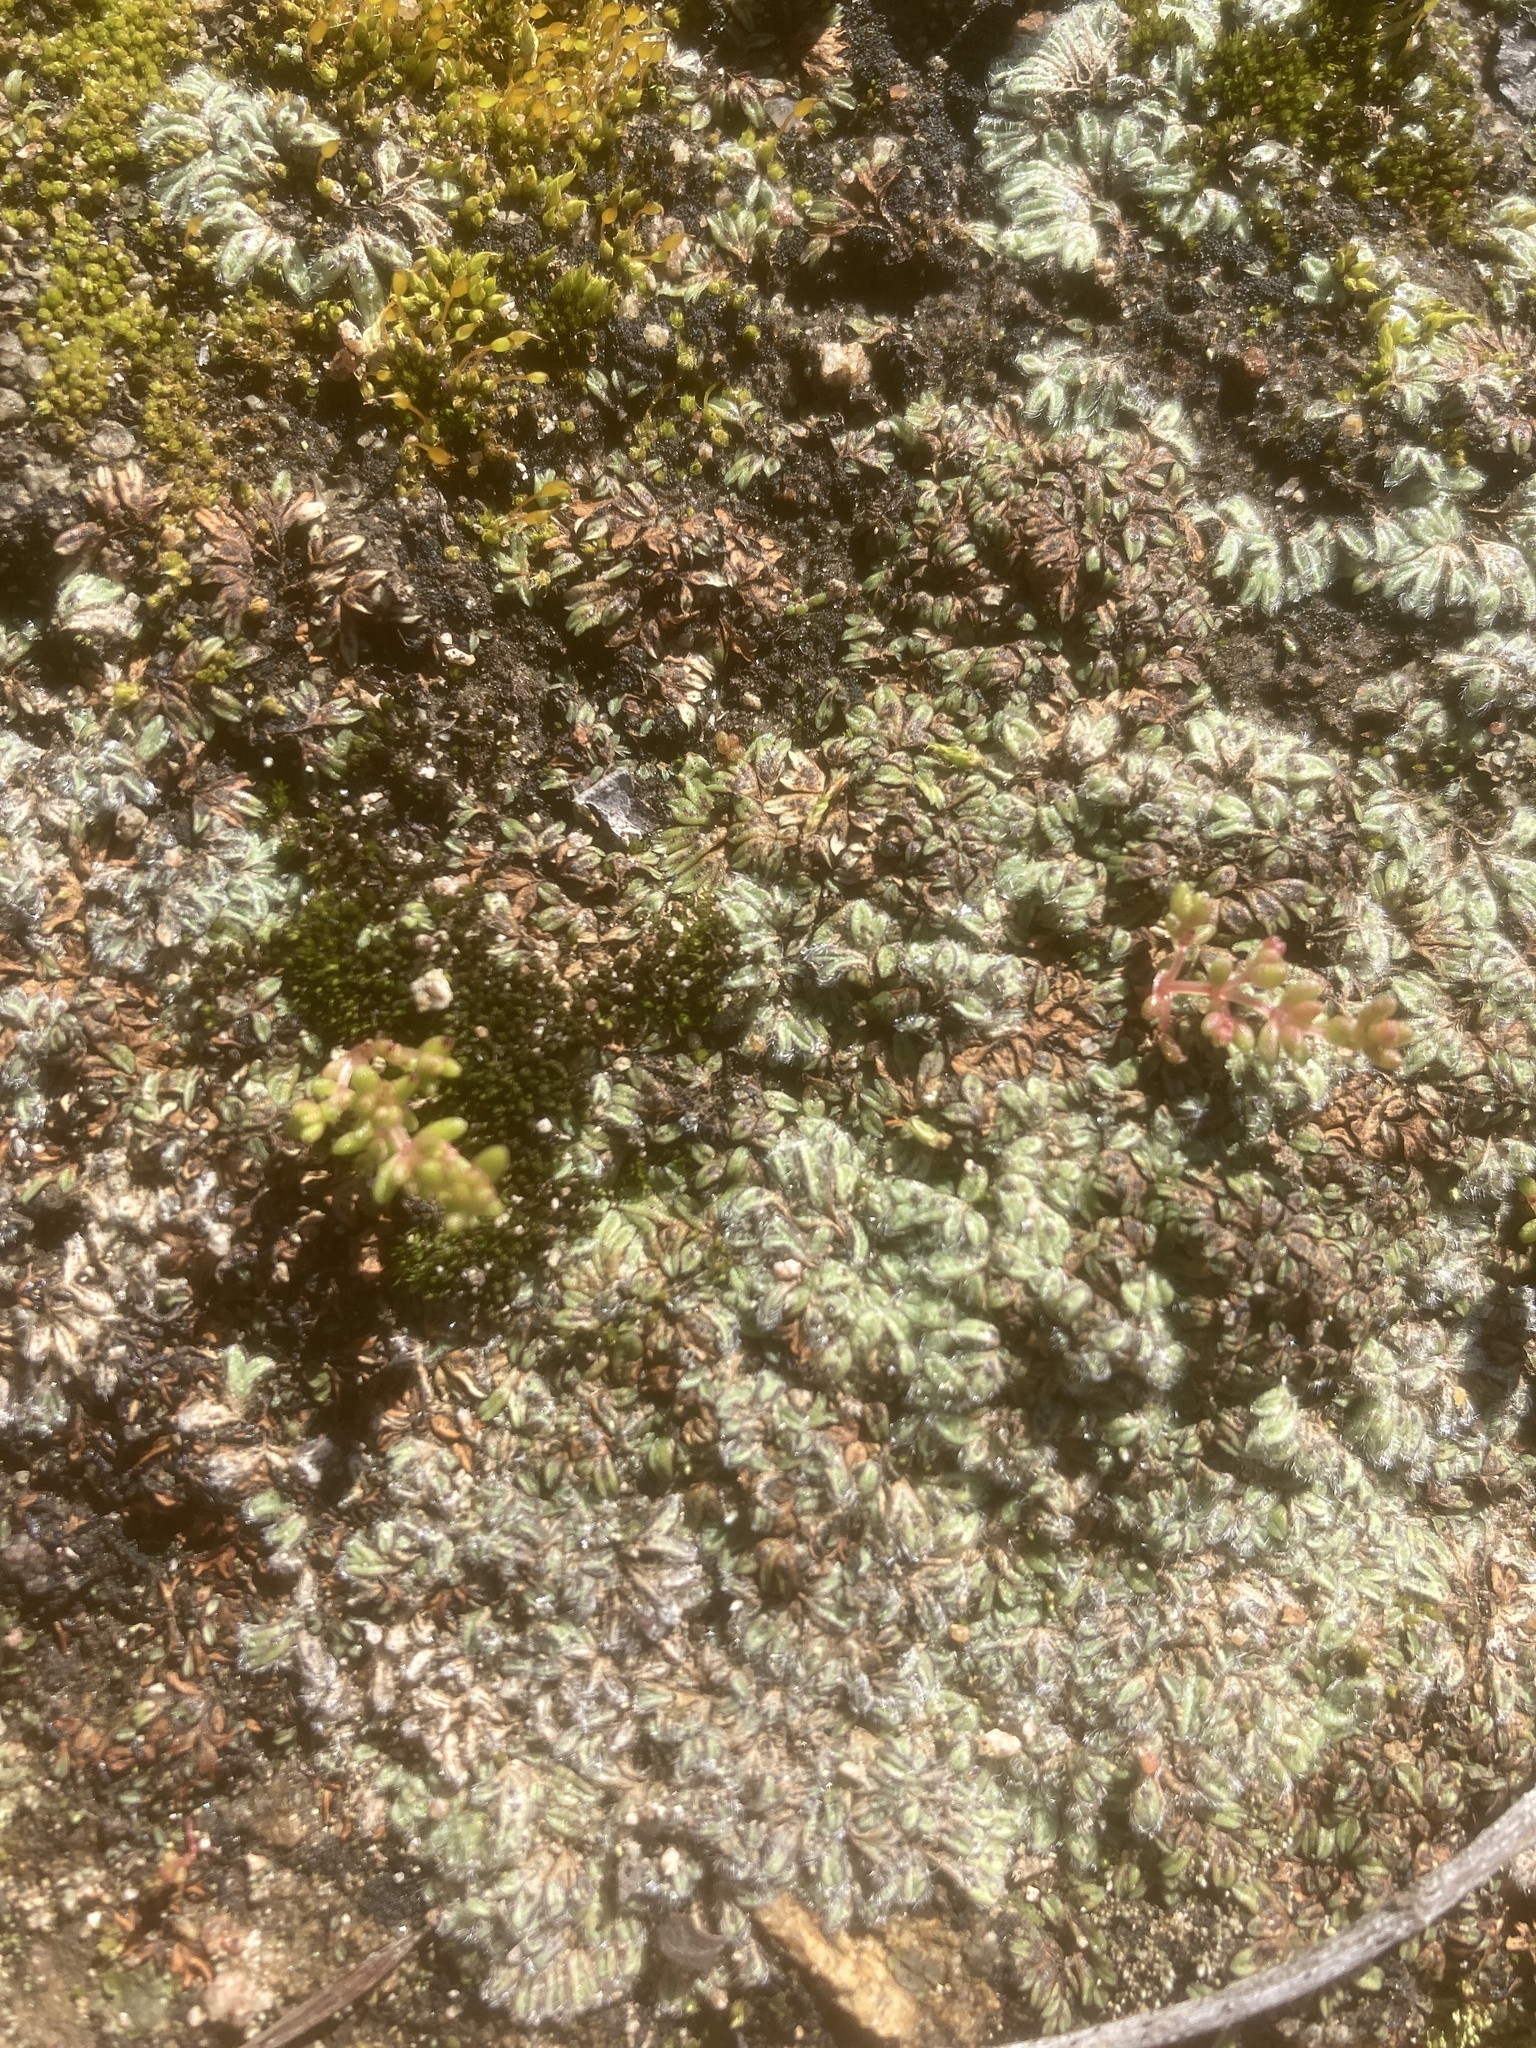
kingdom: Plantae
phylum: Marchantiophyta
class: Marchantiopsida
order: Marchantiales
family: Ricciaceae
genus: Riccia
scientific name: Riccia trichocarpa
